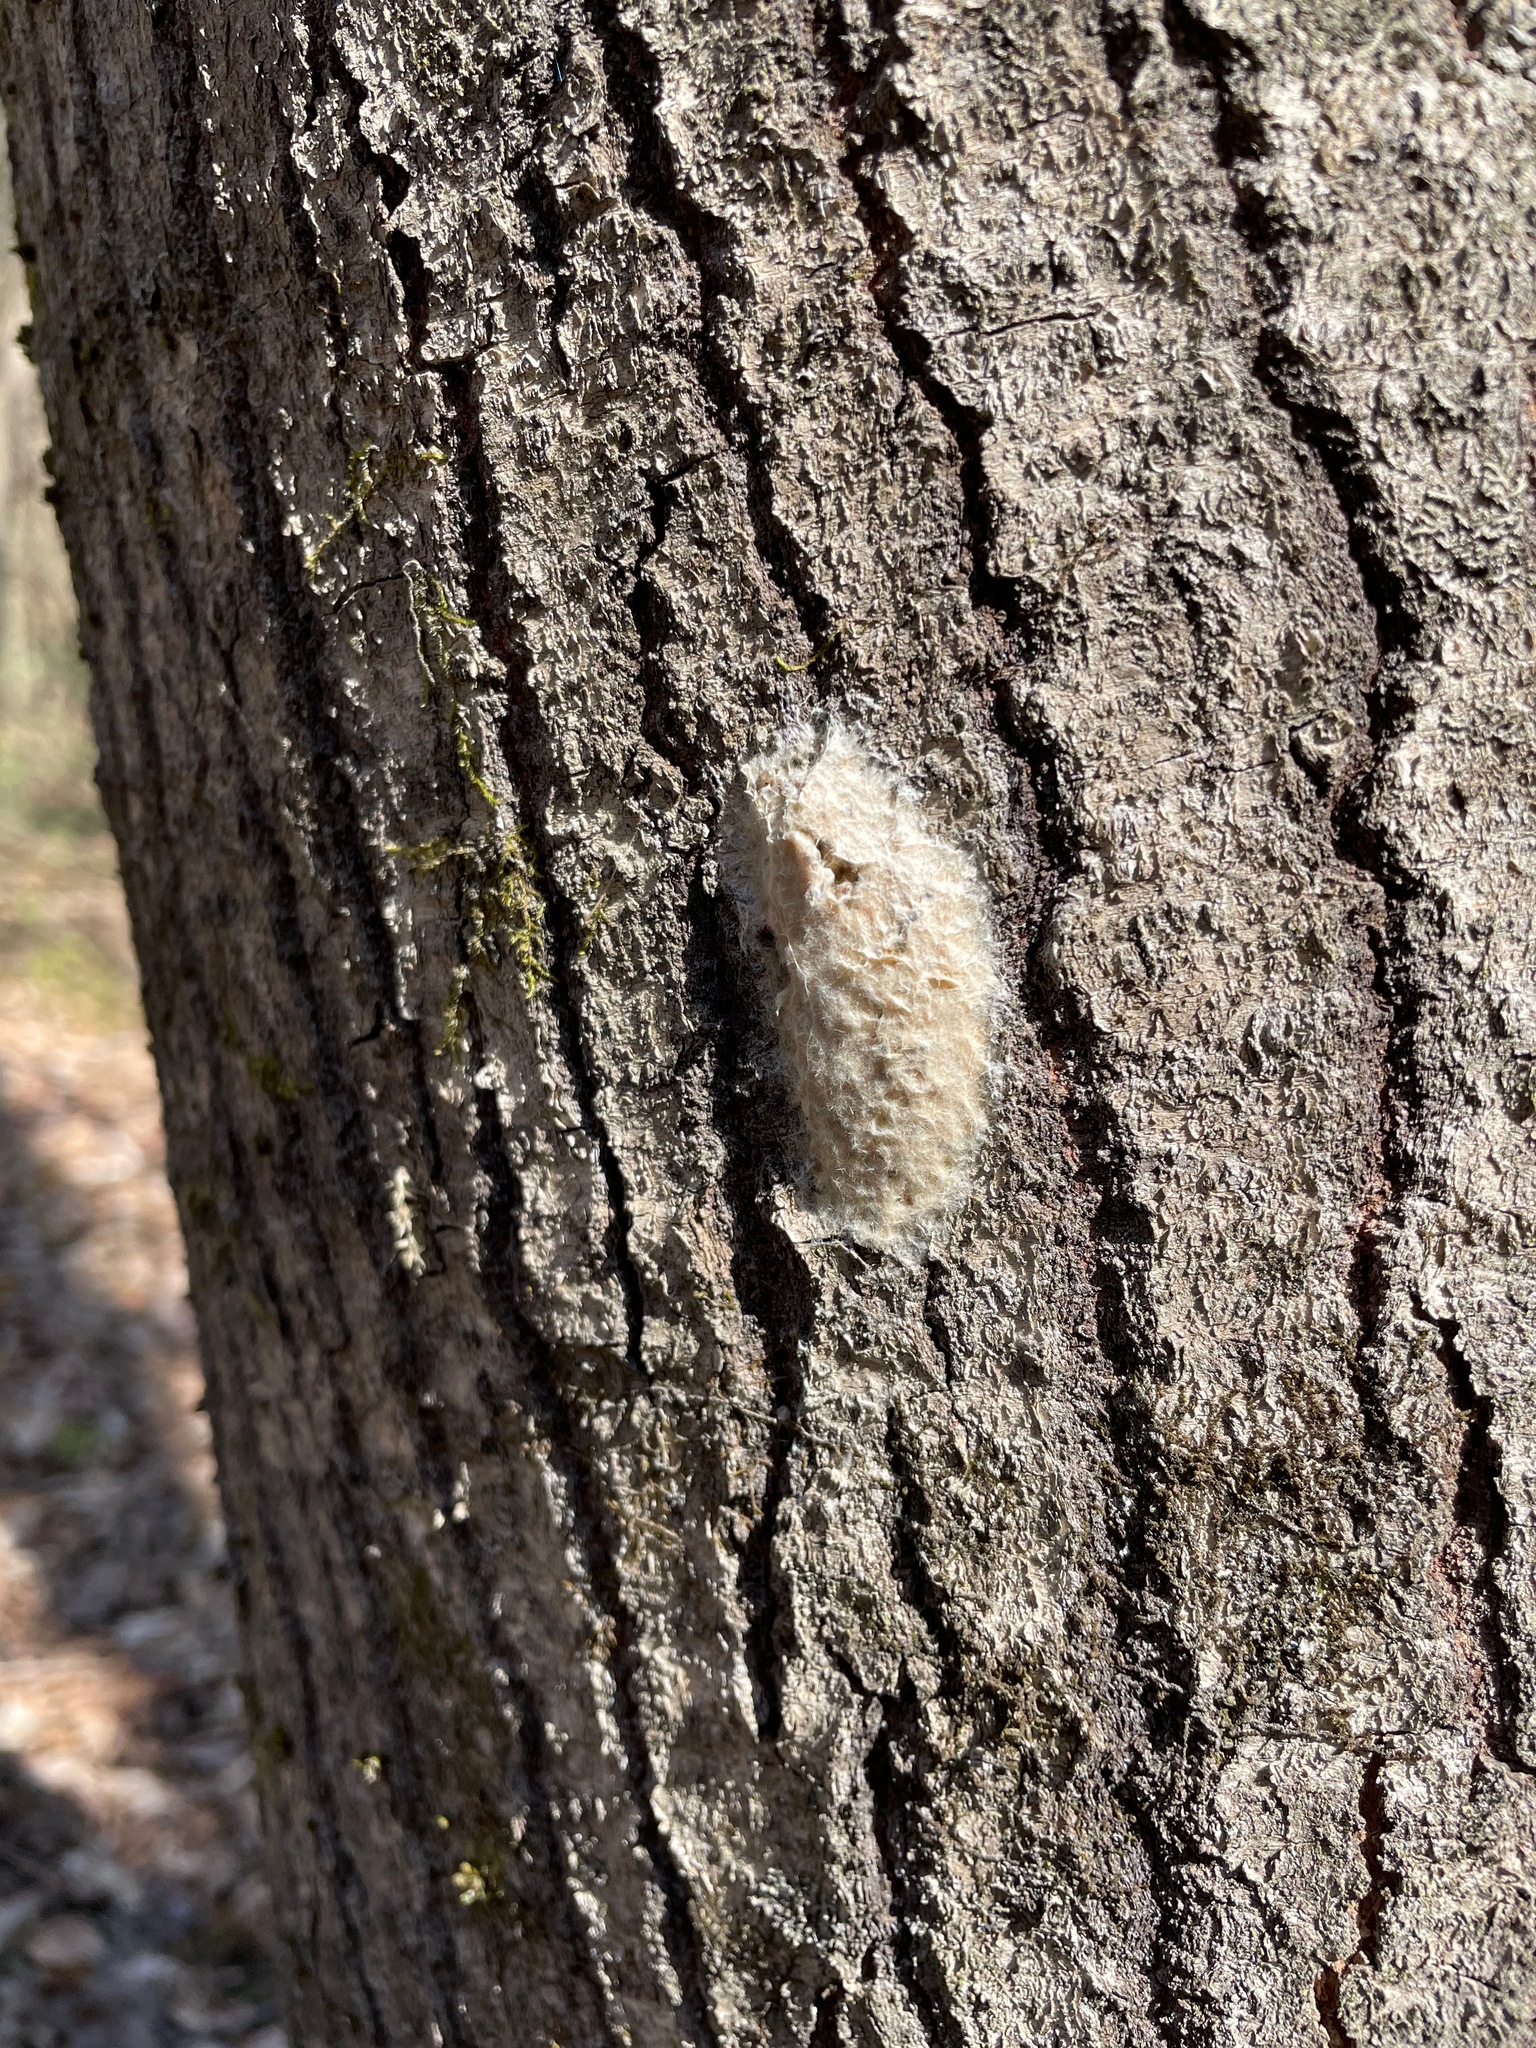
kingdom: Animalia
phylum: Arthropoda
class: Insecta
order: Lepidoptera
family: Erebidae
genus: Lymantria
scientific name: Lymantria dispar
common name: Gypsy moth
